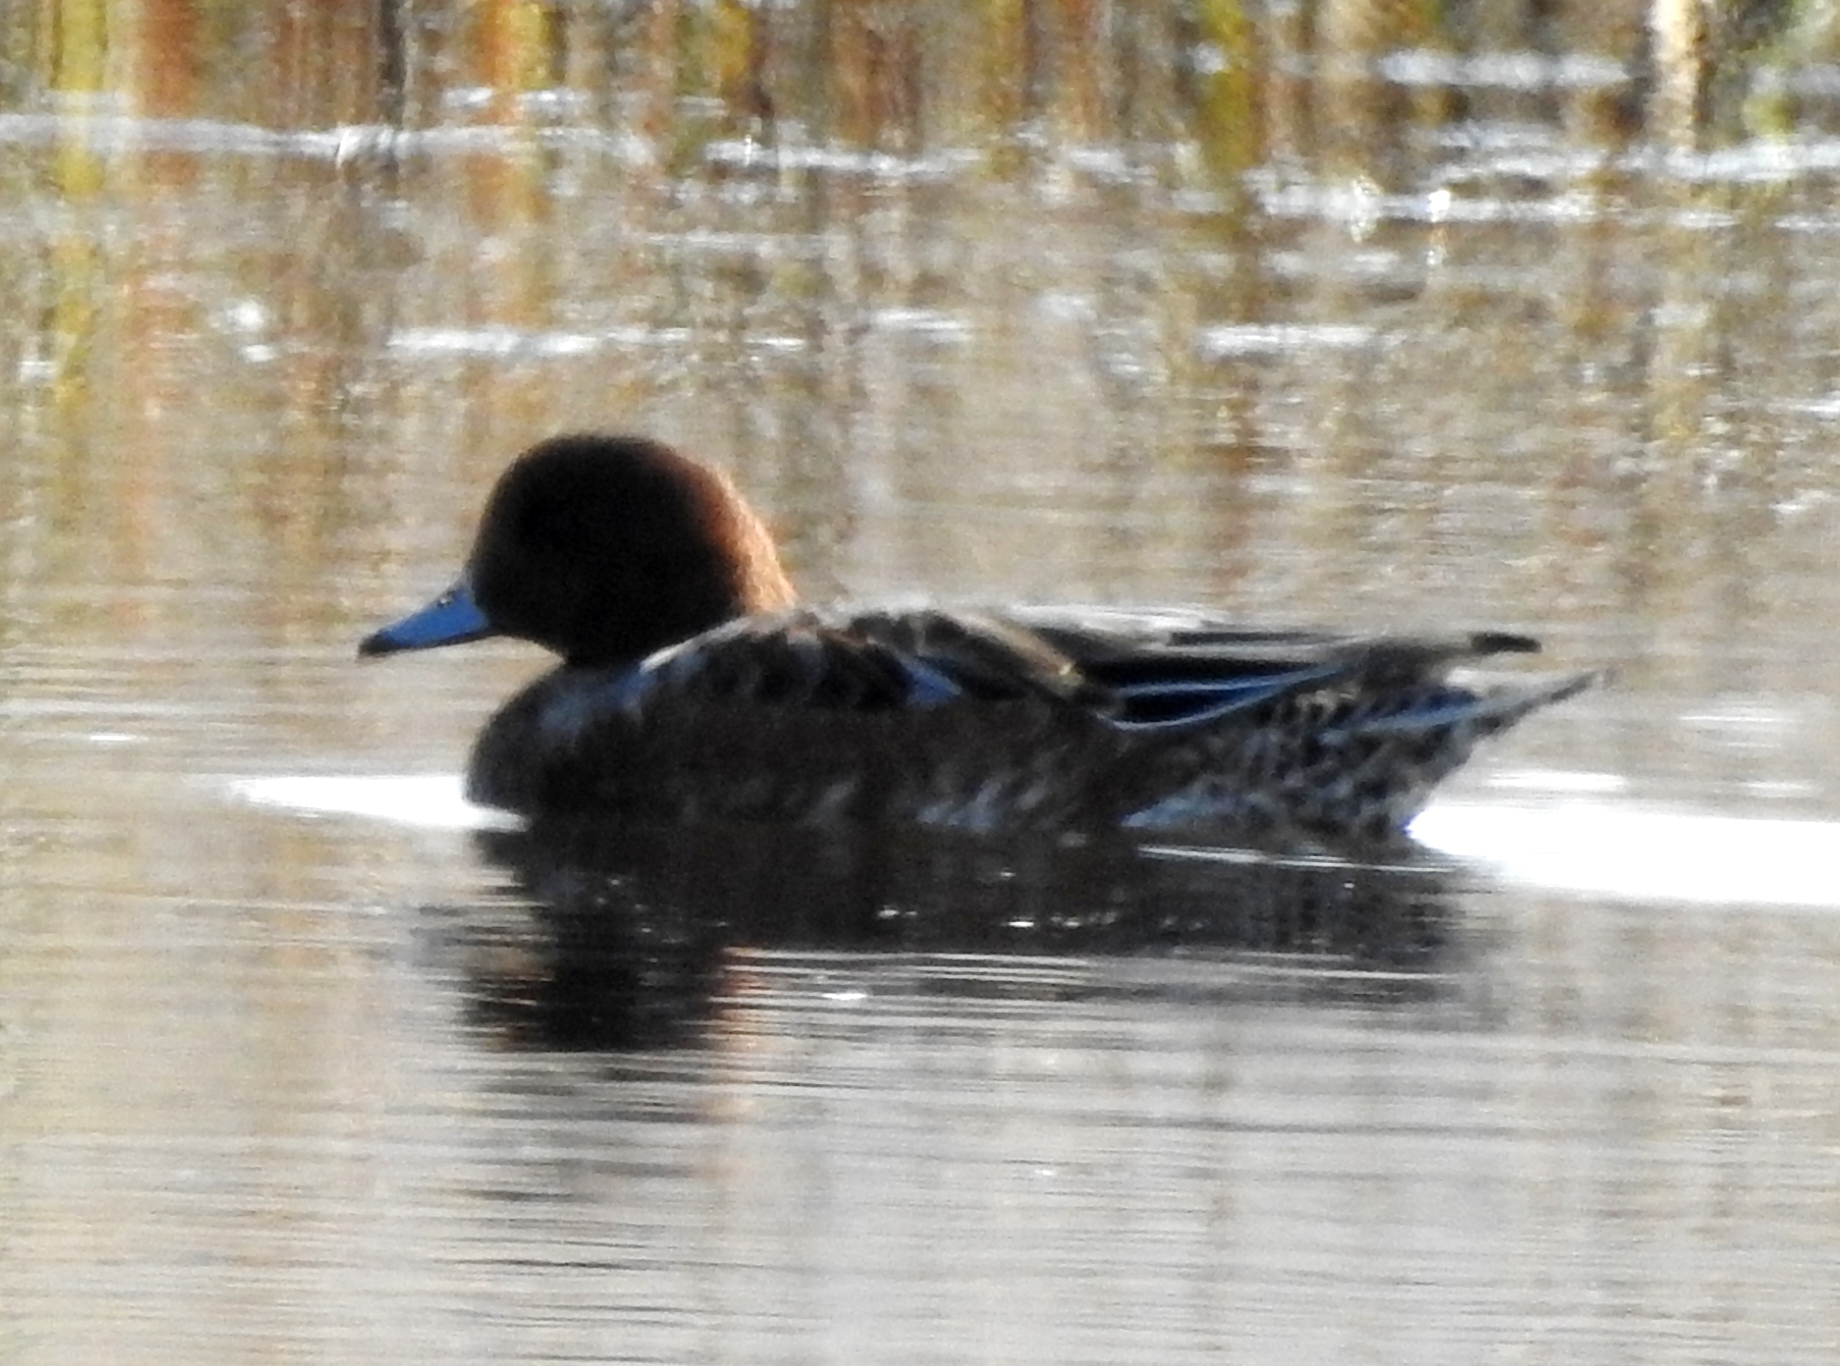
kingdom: Animalia
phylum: Chordata
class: Aves
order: Anseriformes
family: Anatidae
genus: Mareca
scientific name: Mareca penelope
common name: Eurasian wigeon
